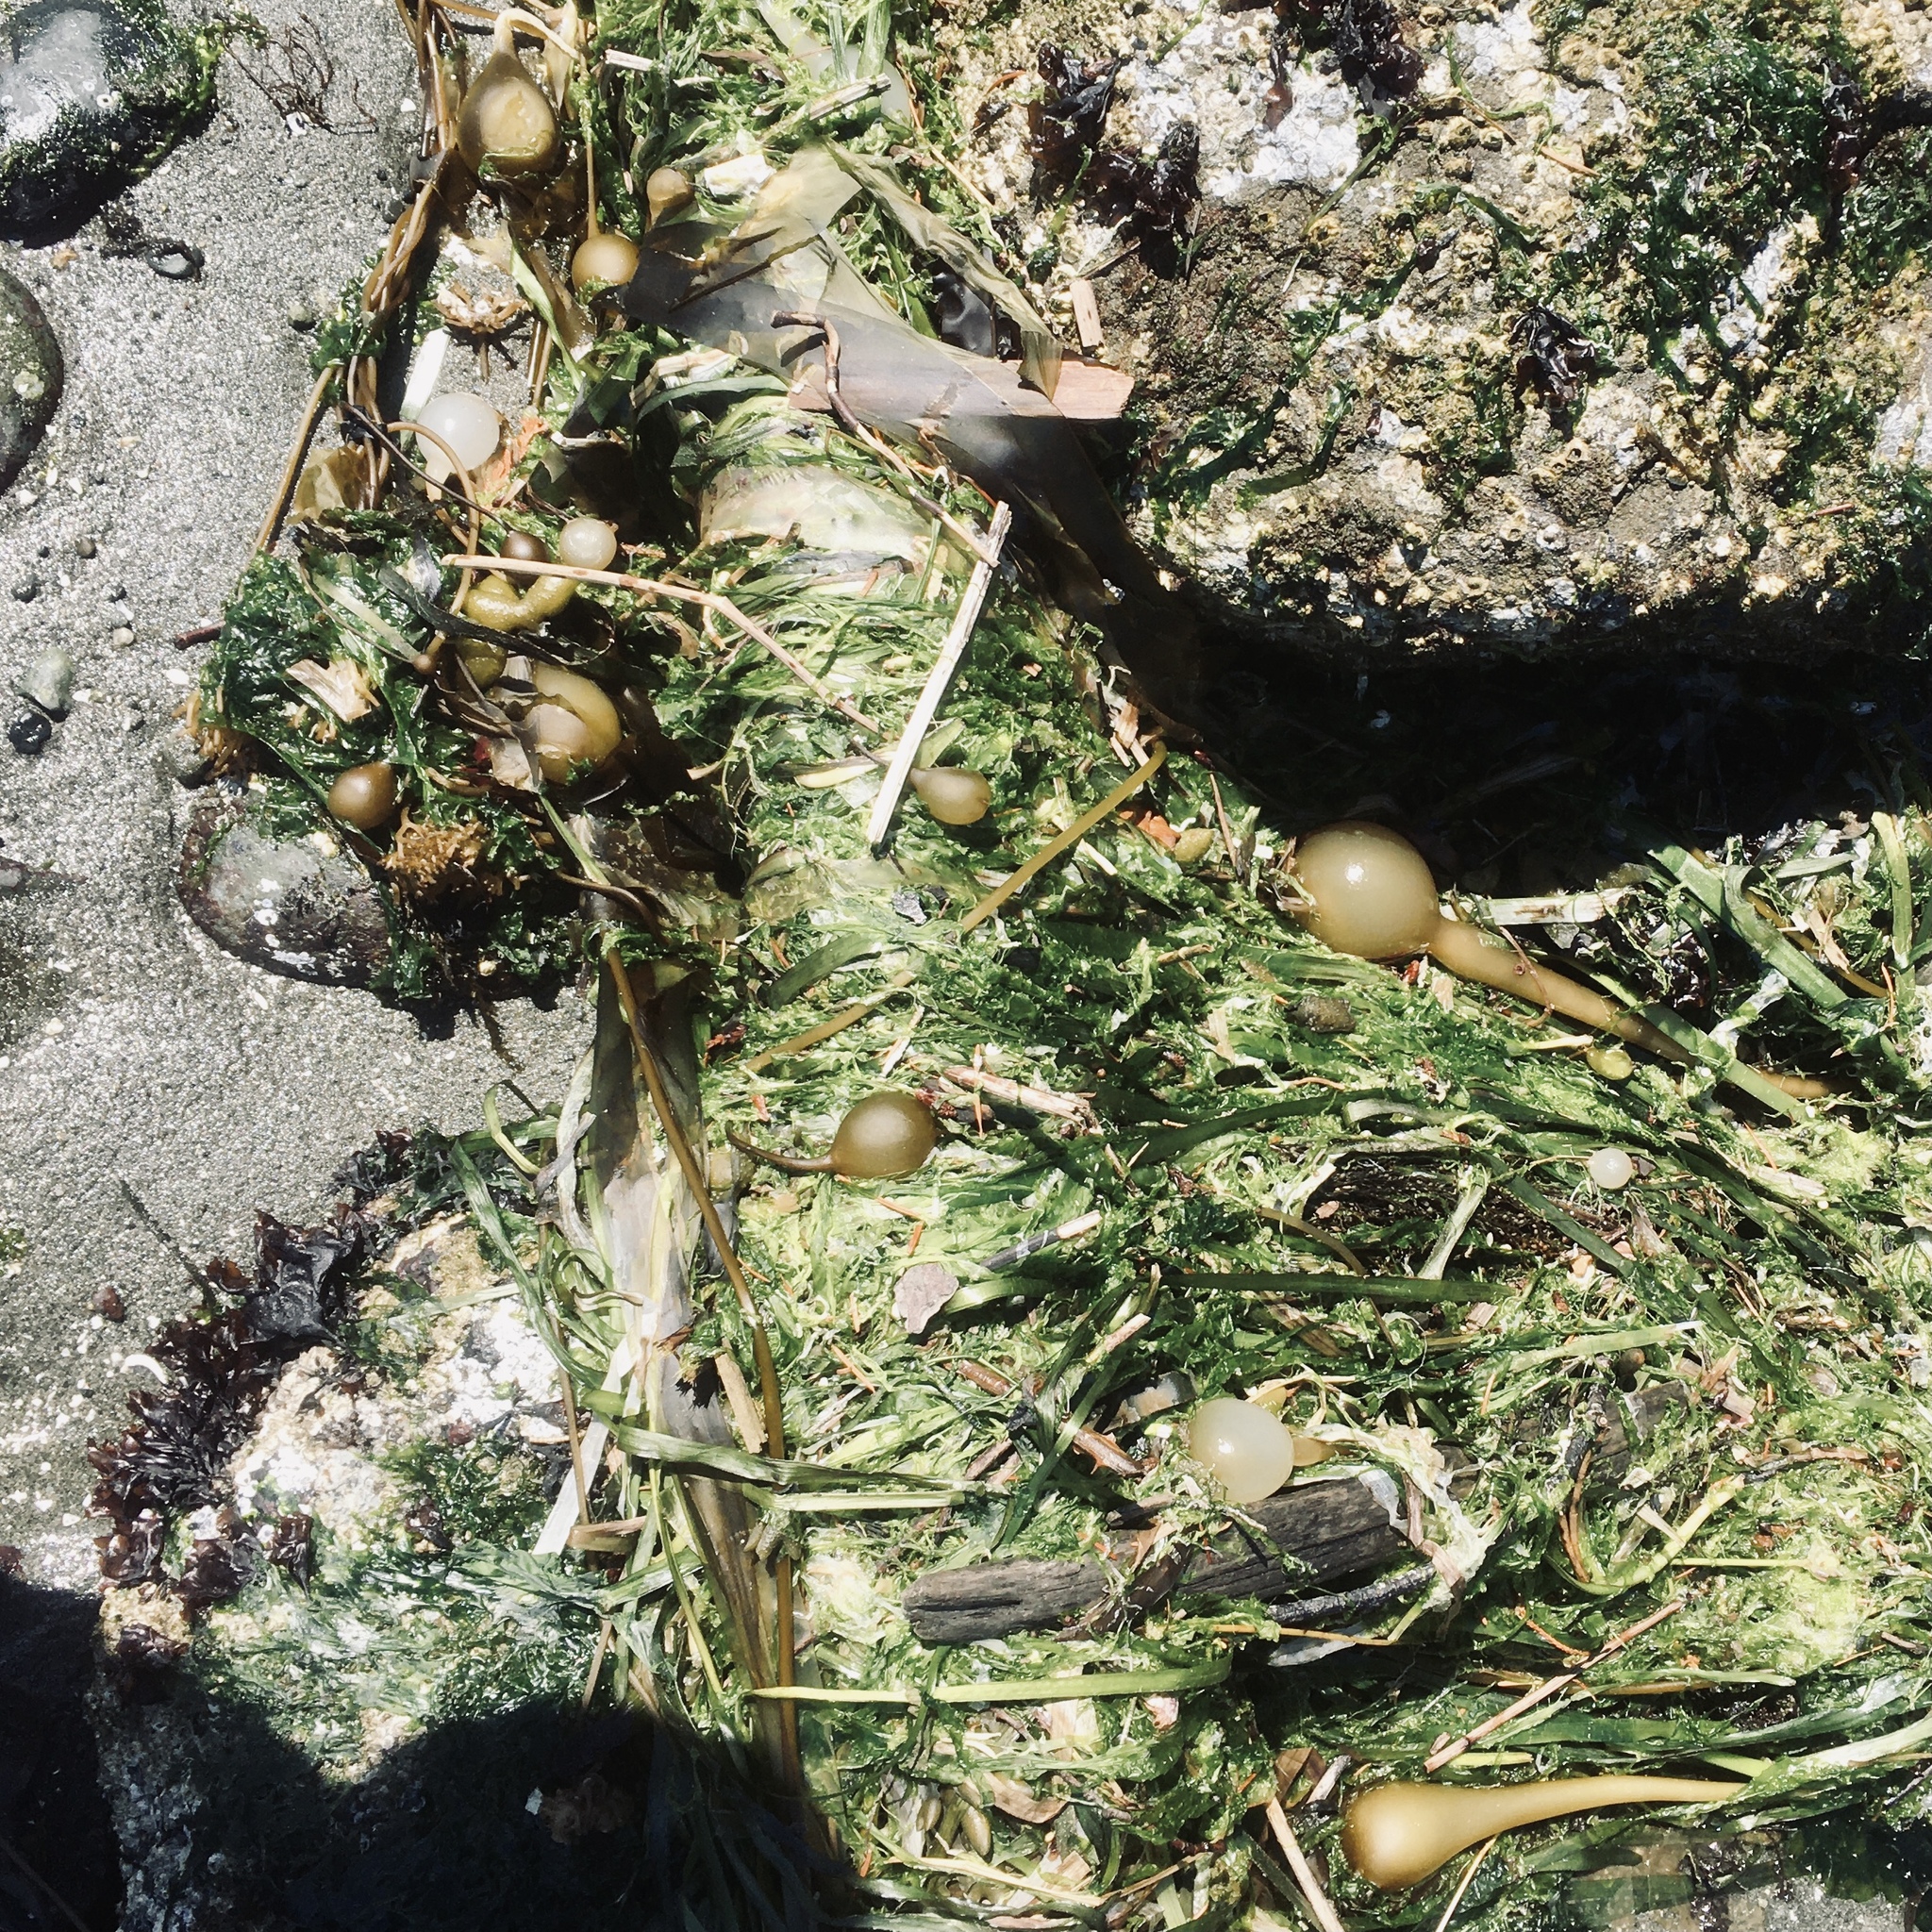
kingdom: Chromista
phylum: Ochrophyta
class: Phaeophyceae
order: Laminariales
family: Laminariaceae
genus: Nereocystis
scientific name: Nereocystis luetkeana
